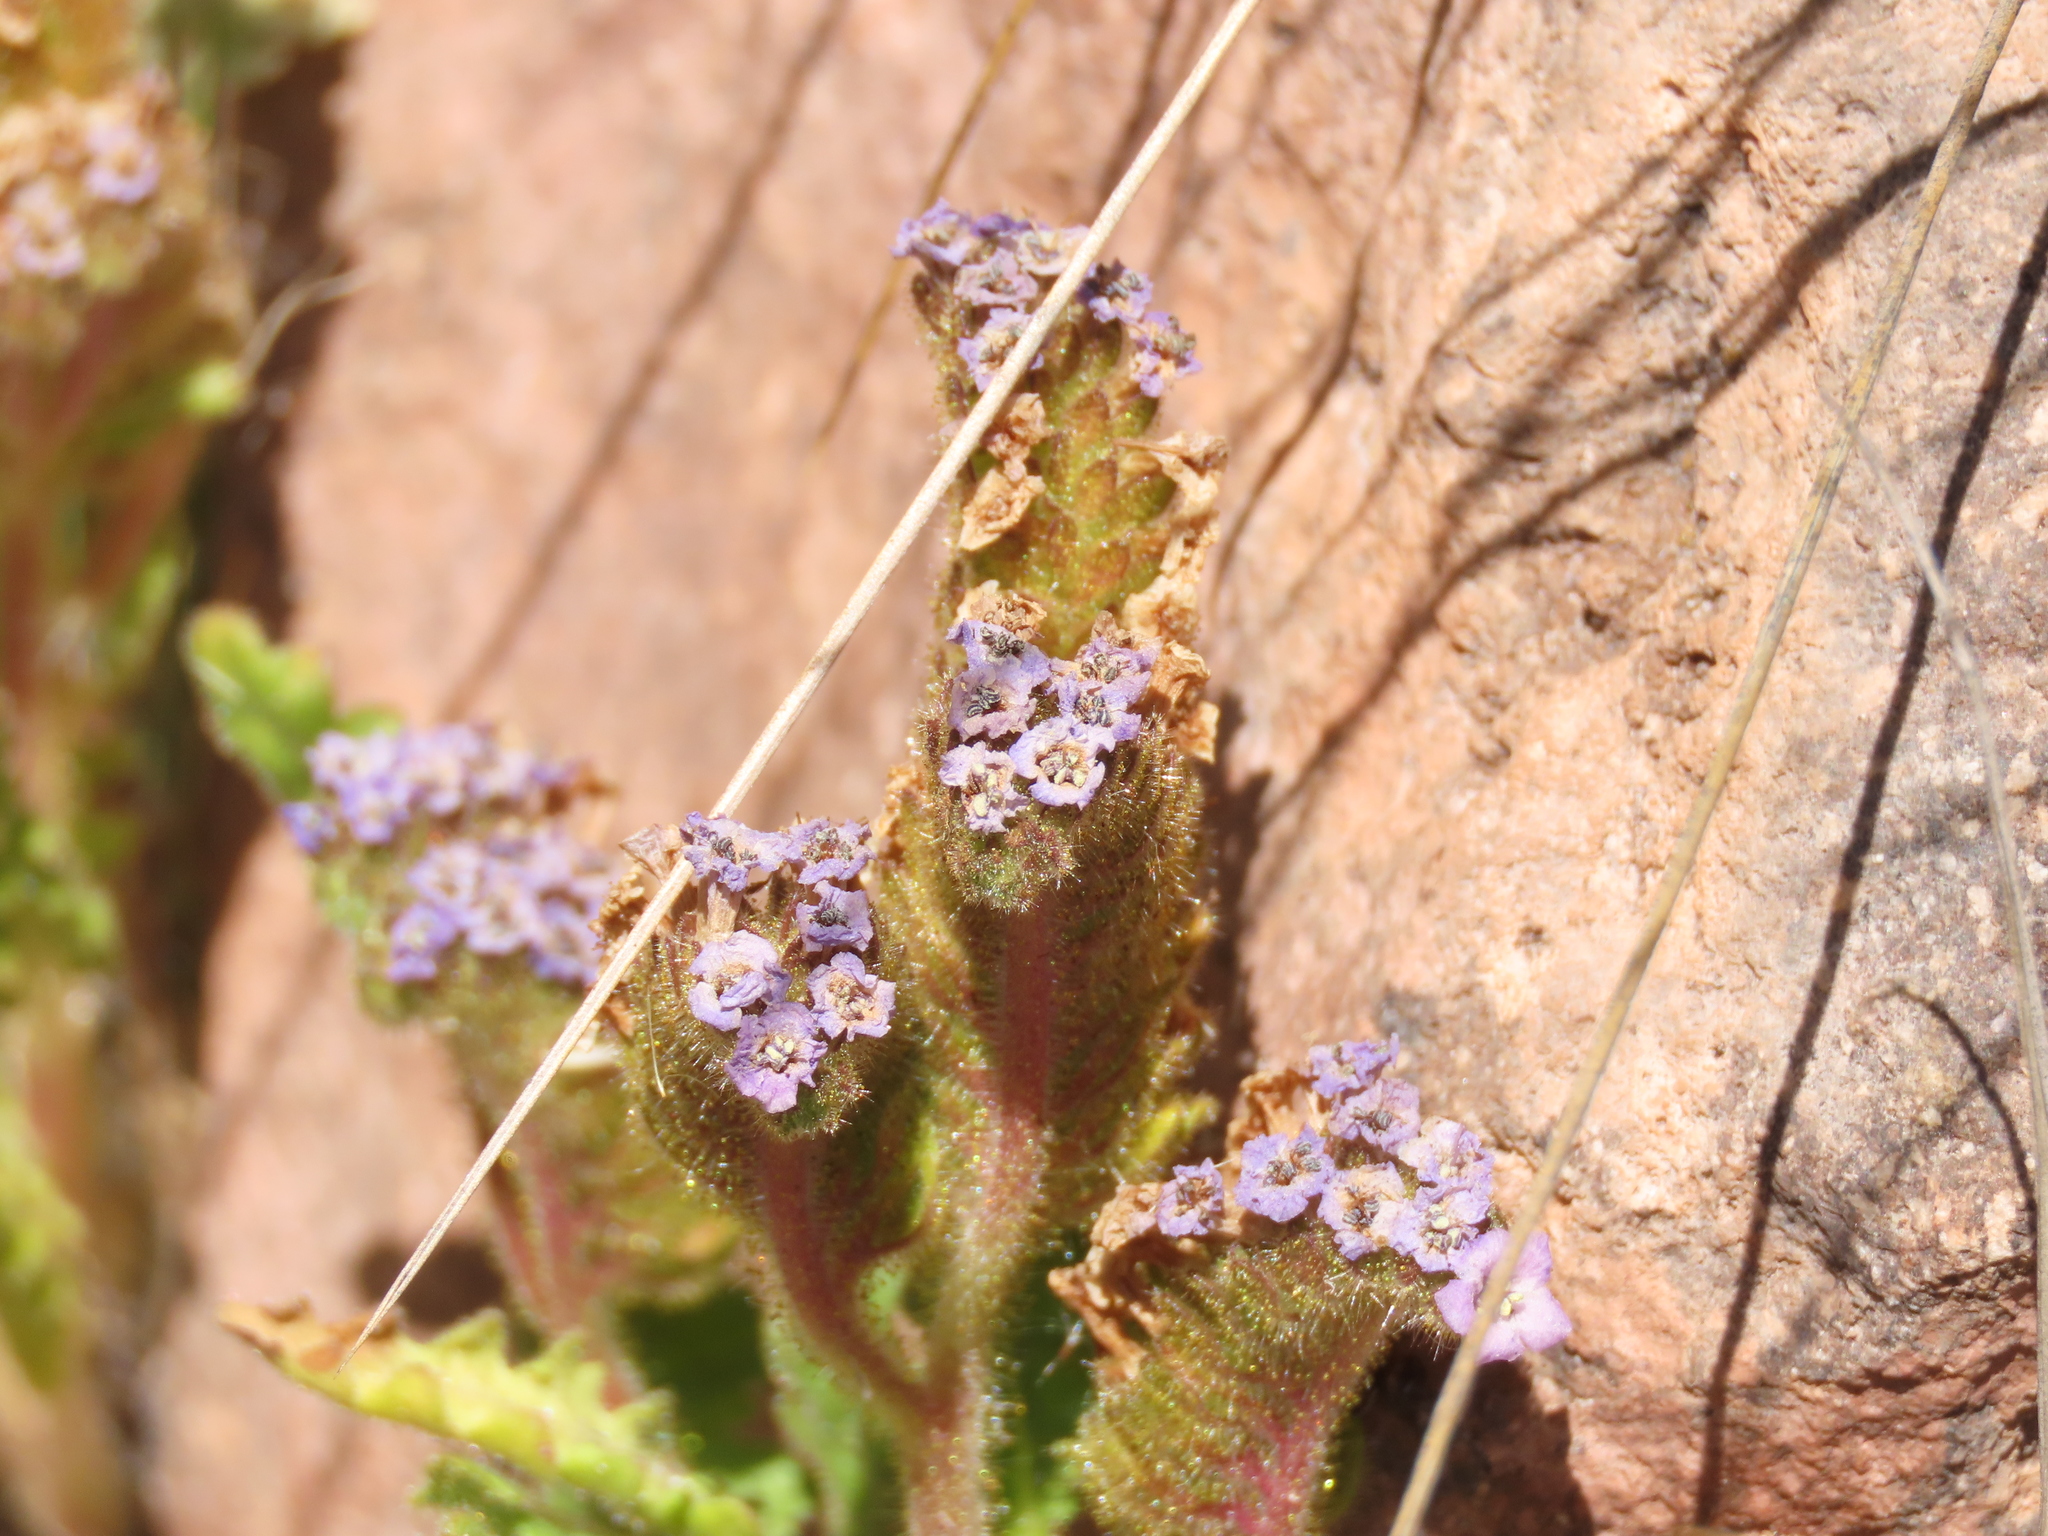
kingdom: Plantae
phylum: Tracheophyta
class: Magnoliopsida
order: Boraginales
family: Hydrophyllaceae
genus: Phacelia
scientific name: Phacelia setigera
